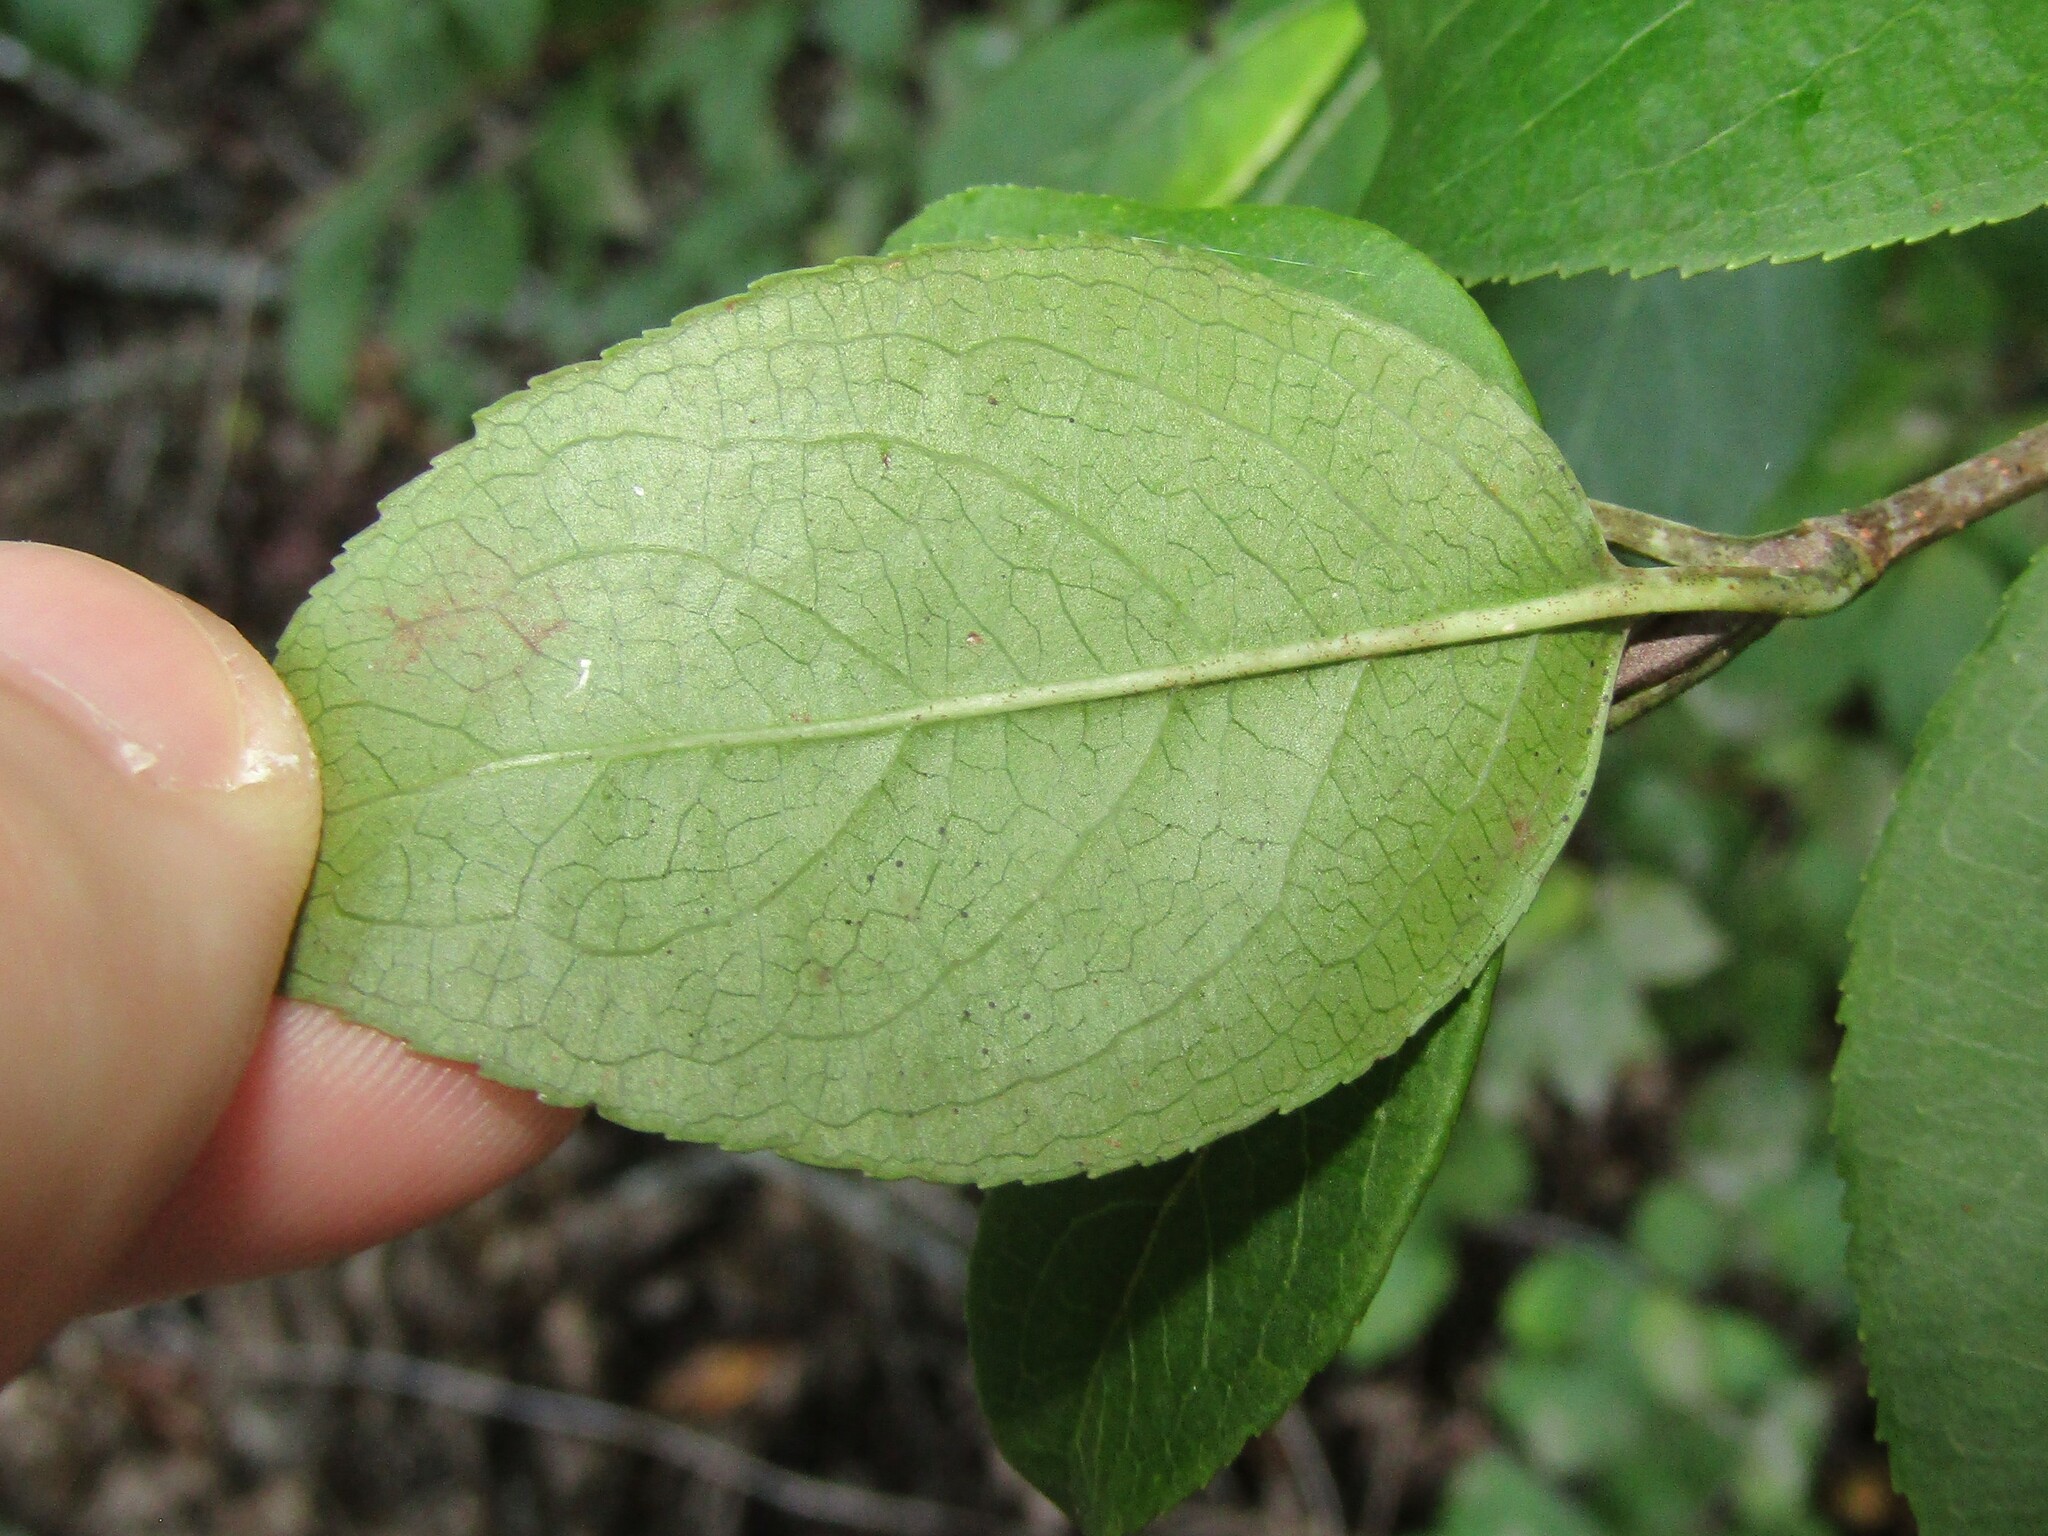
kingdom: Plantae
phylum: Tracheophyta
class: Magnoliopsida
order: Dipsacales
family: Viburnaceae
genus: Viburnum
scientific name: Viburnum prunifolium
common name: Black haw
